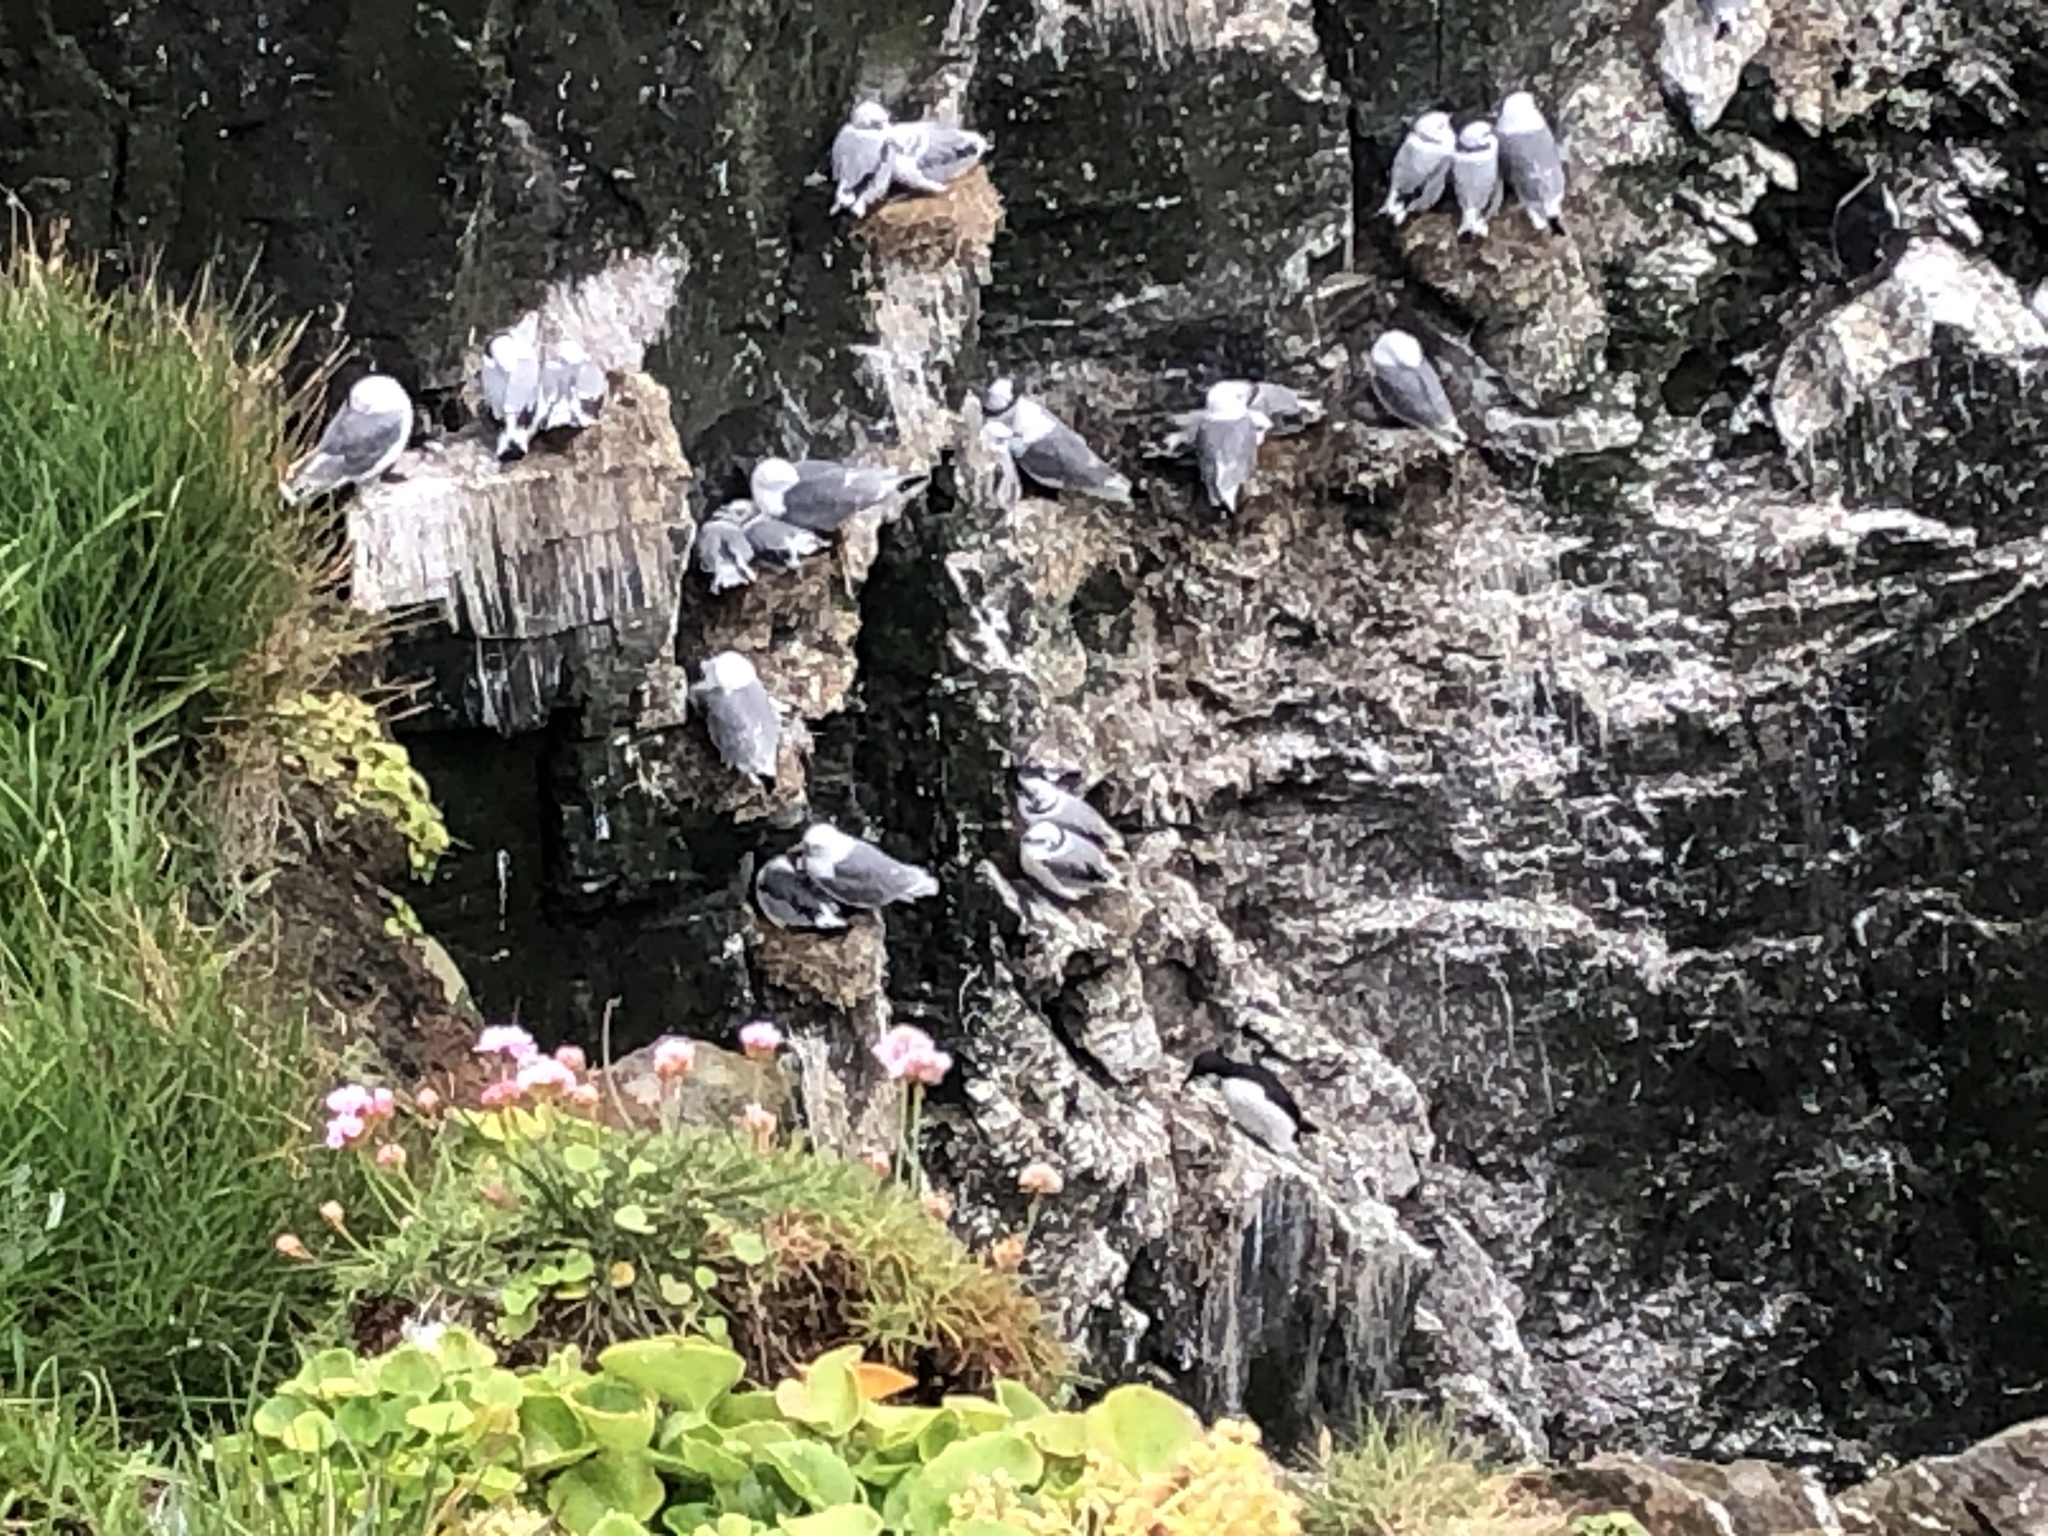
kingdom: Animalia
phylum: Chordata
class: Aves
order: Charadriiformes
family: Laridae
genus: Rissa
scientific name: Rissa tridactyla
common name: Black-legged kittiwake
